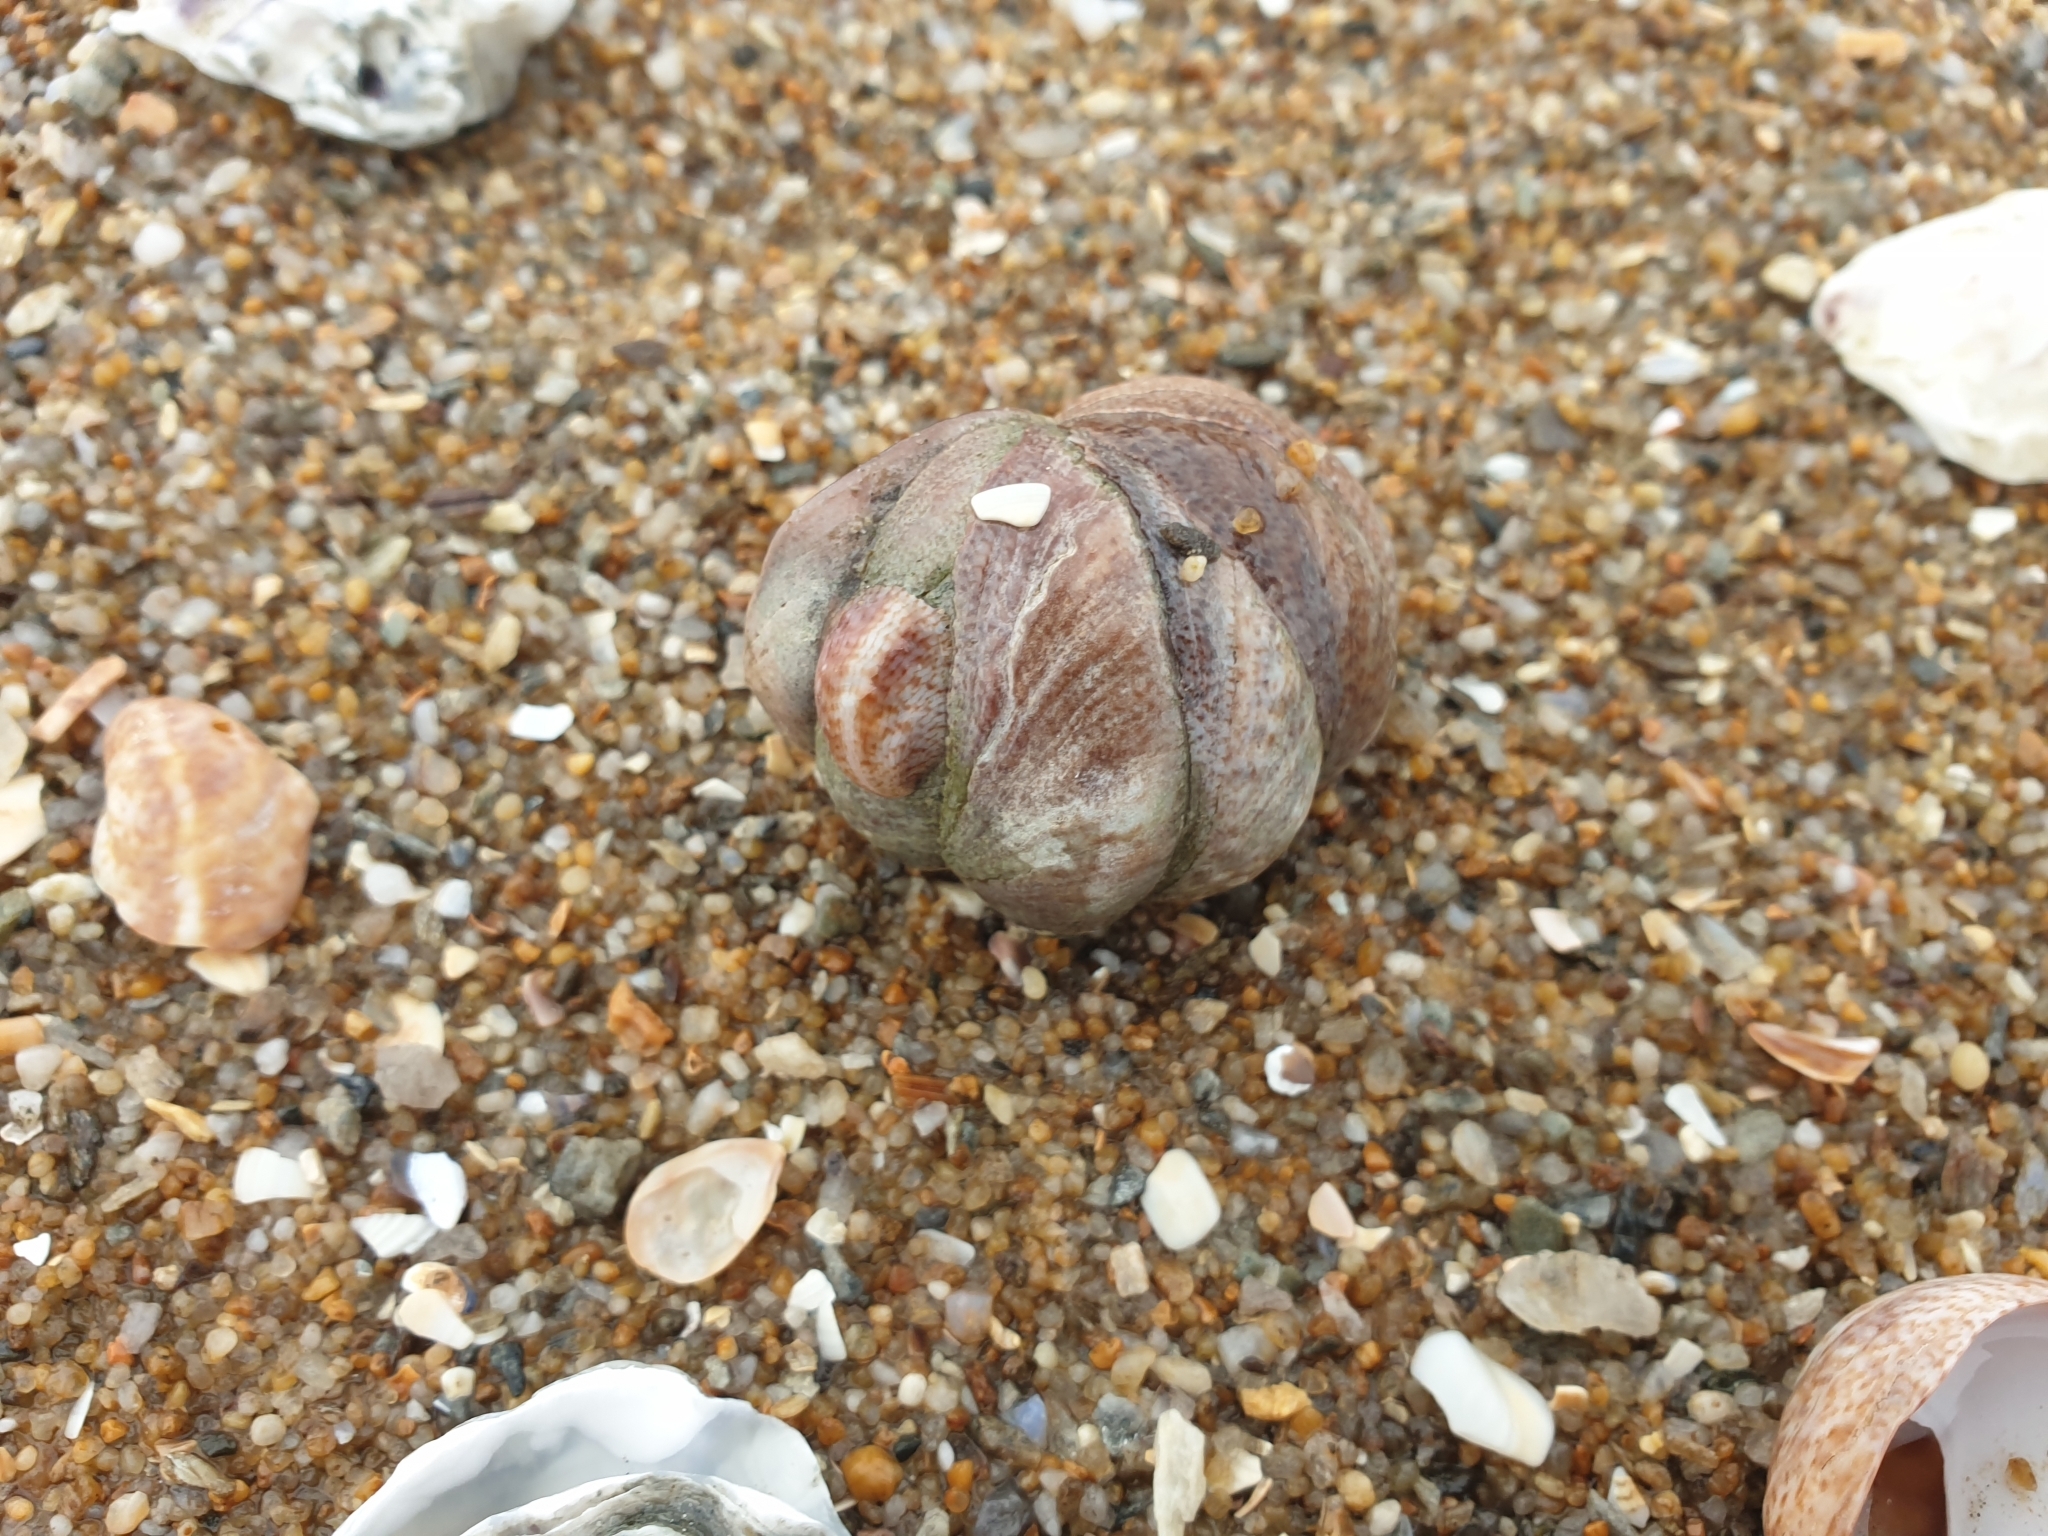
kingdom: Animalia
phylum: Mollusca
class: Gastropoda
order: Littorinimorpha
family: Calyptraeidae
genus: Crepidula
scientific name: Crepidula fornicata
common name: Slipper limpet
